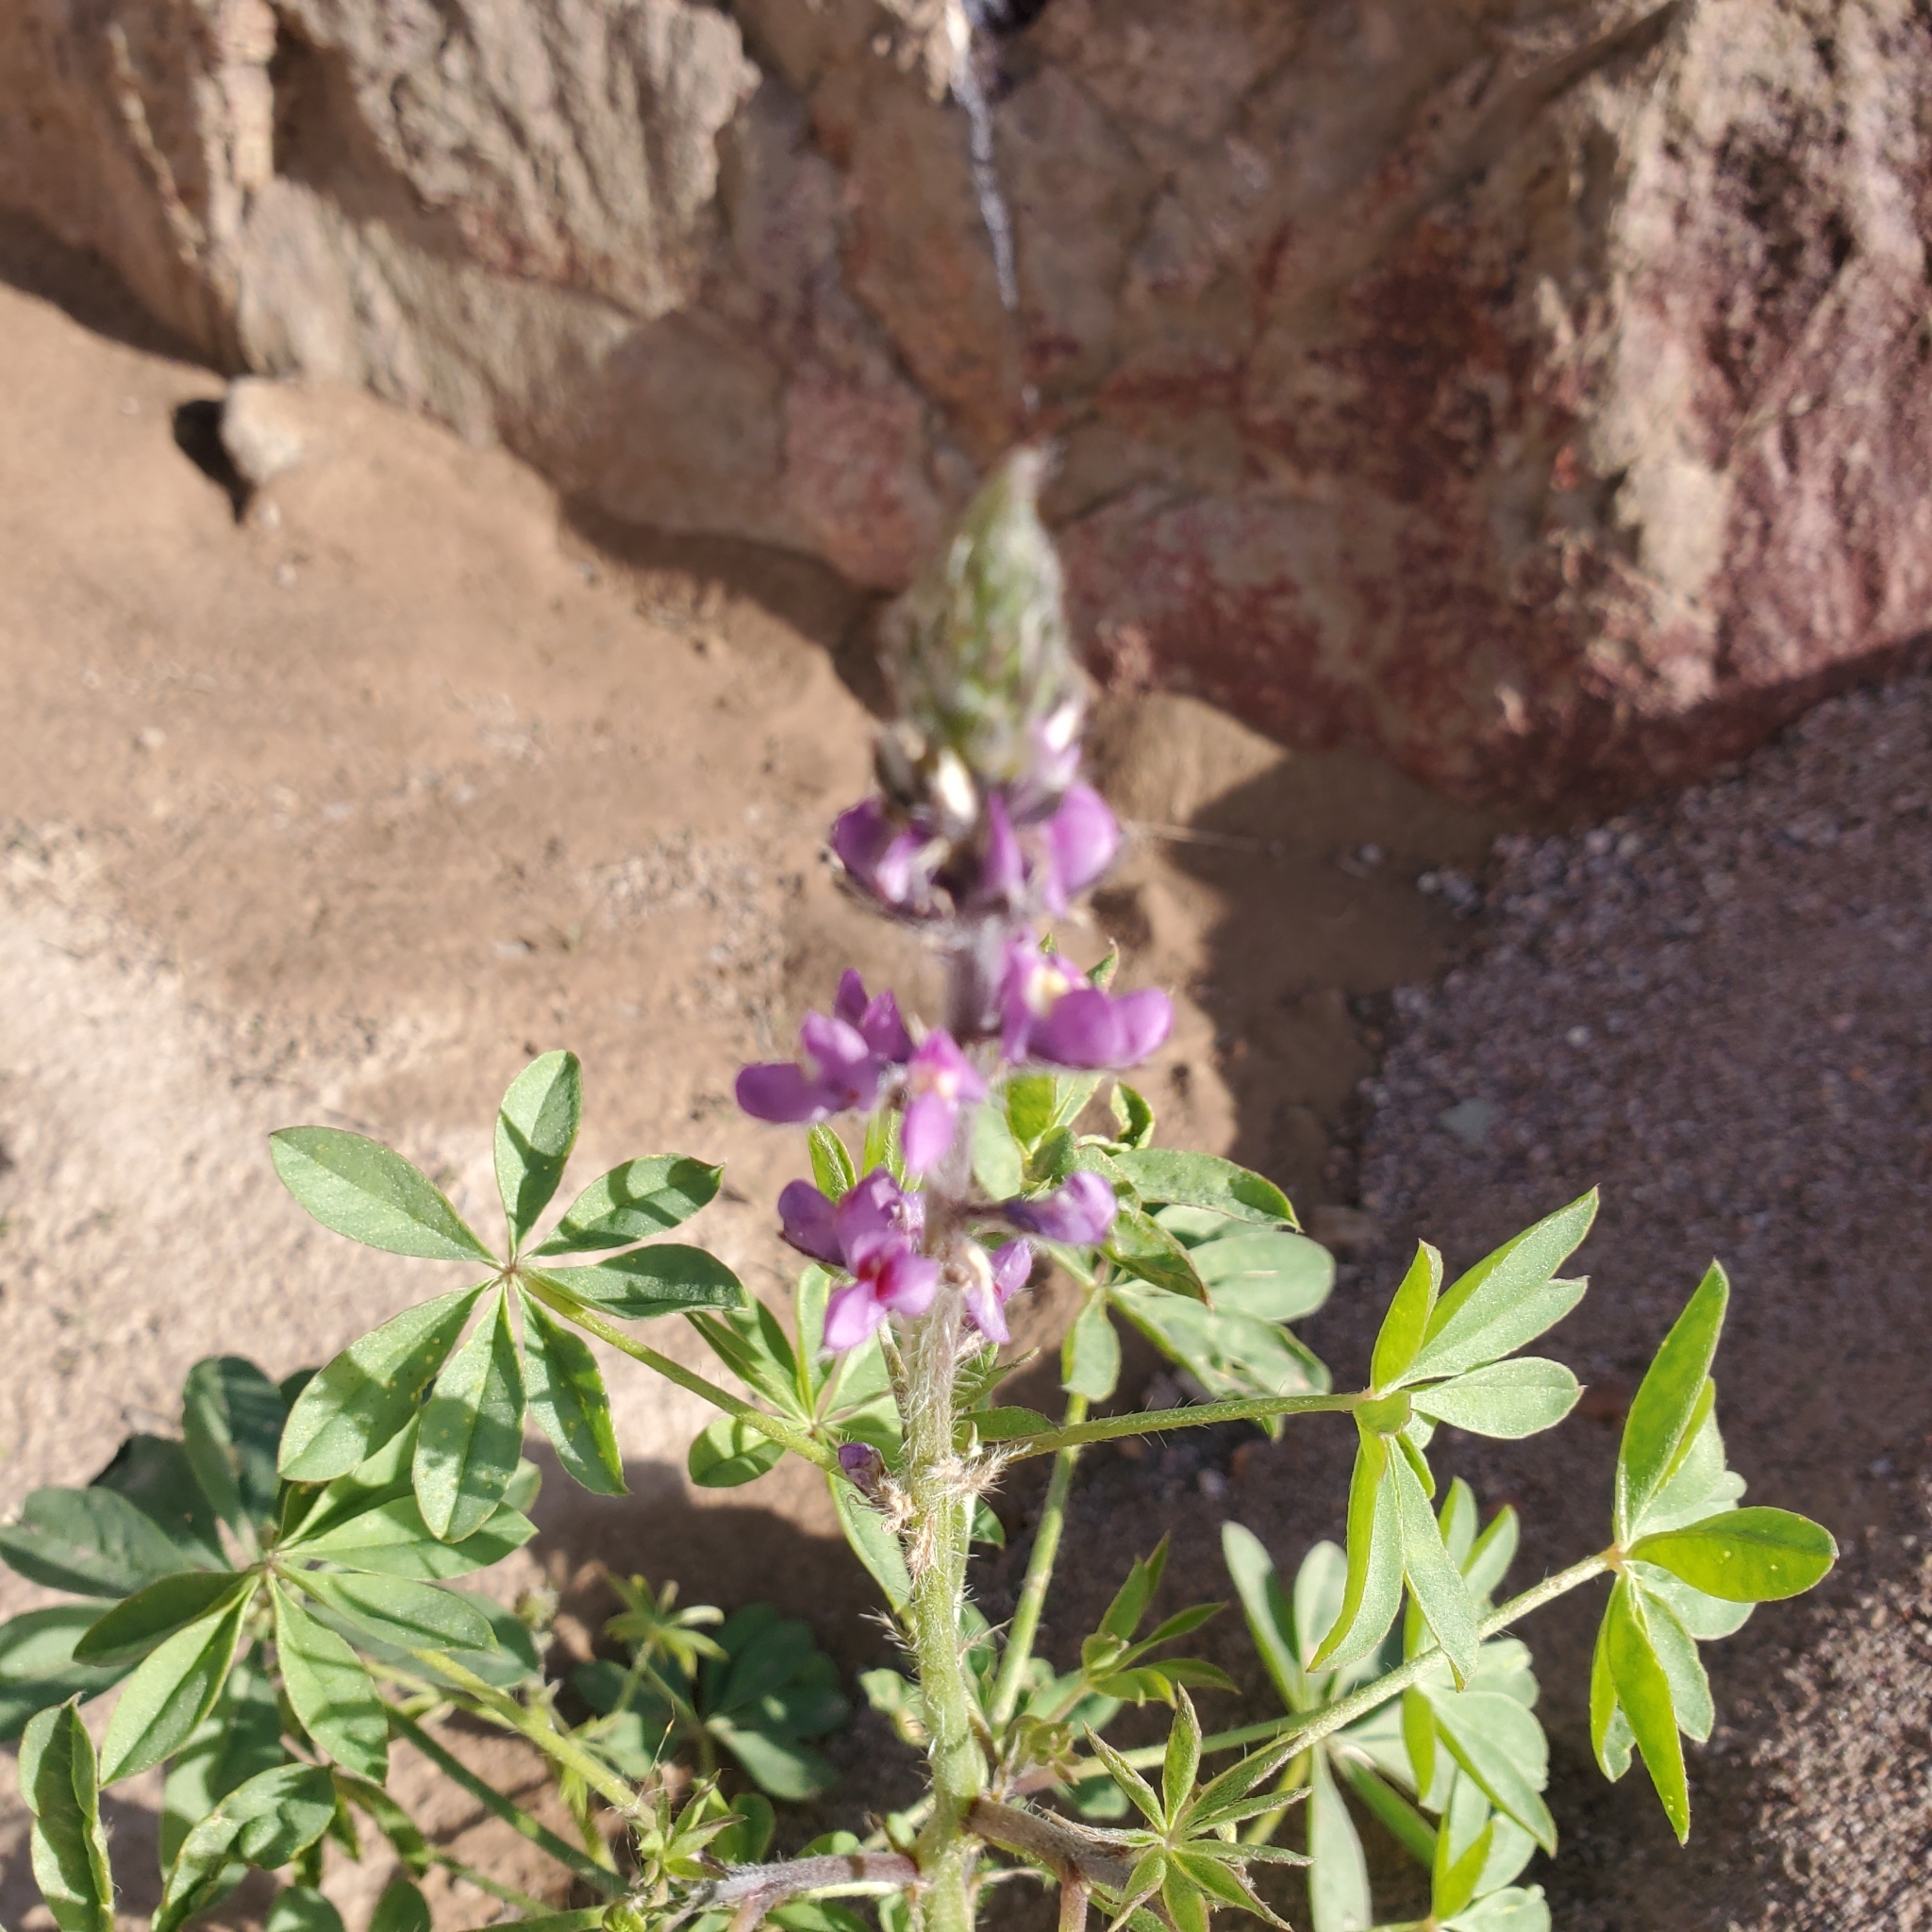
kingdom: Plantae
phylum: Tracheophyta
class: Magnoliopsida
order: Fabales
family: Fabaceae
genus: Lupinus
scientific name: Lupinus arizonicus
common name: Arizona lupine
